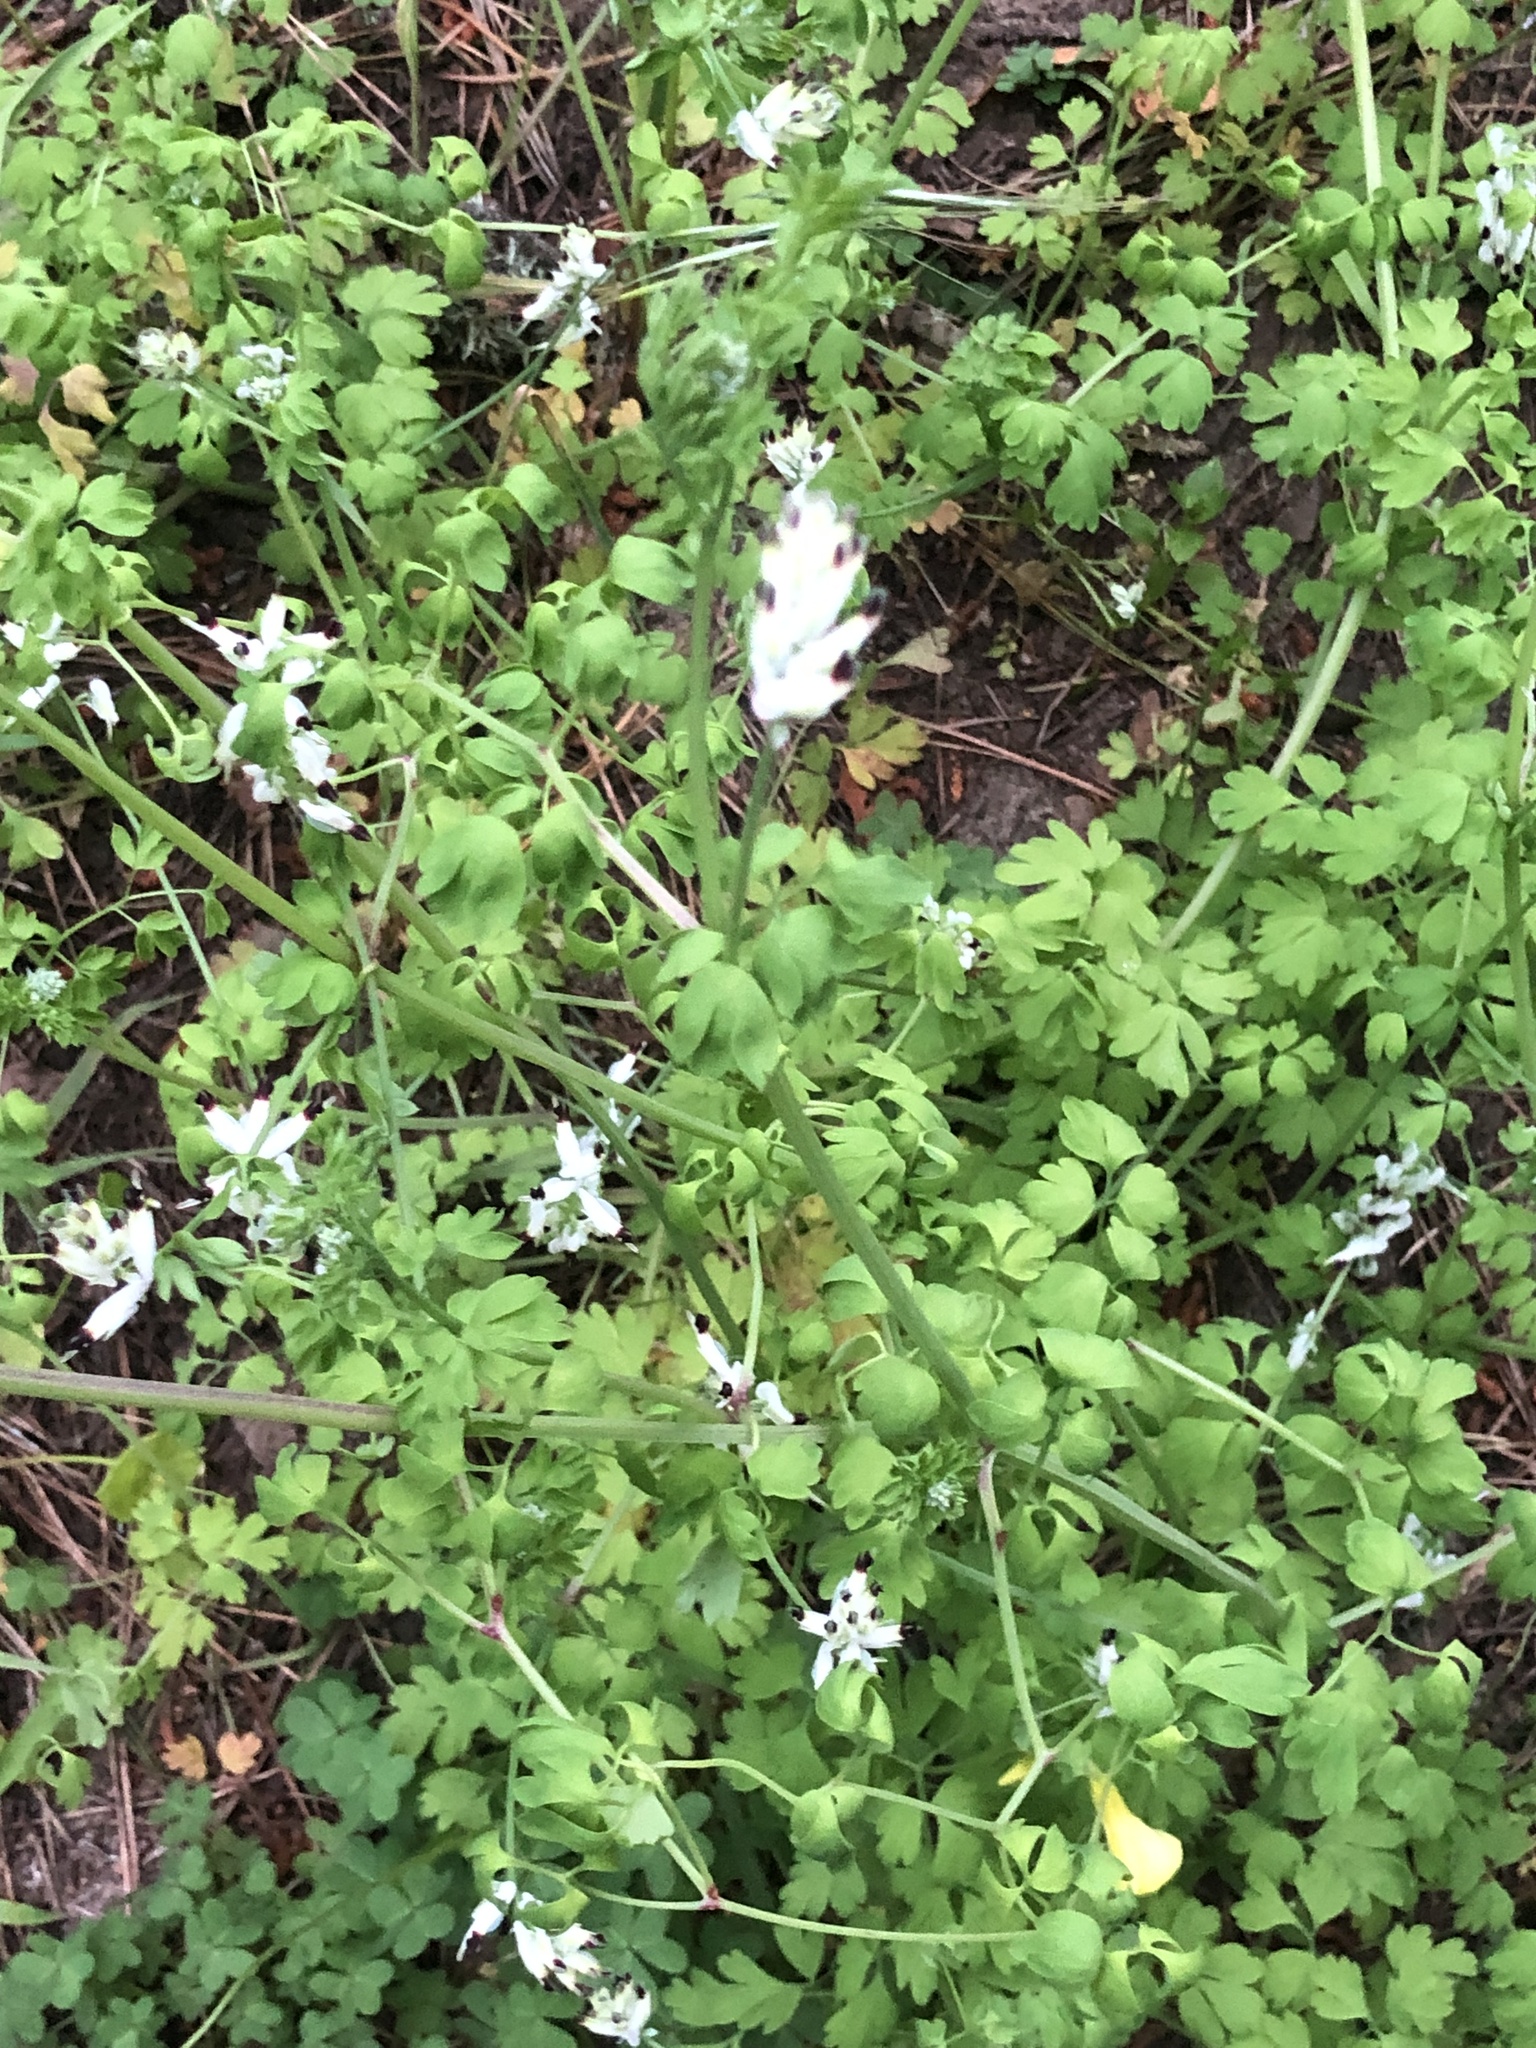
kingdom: Plantae
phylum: Tracheophyta
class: Magnoliopsida
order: Ranunculales
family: Papaveraceae
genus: Fumaria
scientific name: Fumaria capreolata
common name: White ramping-fumitory
